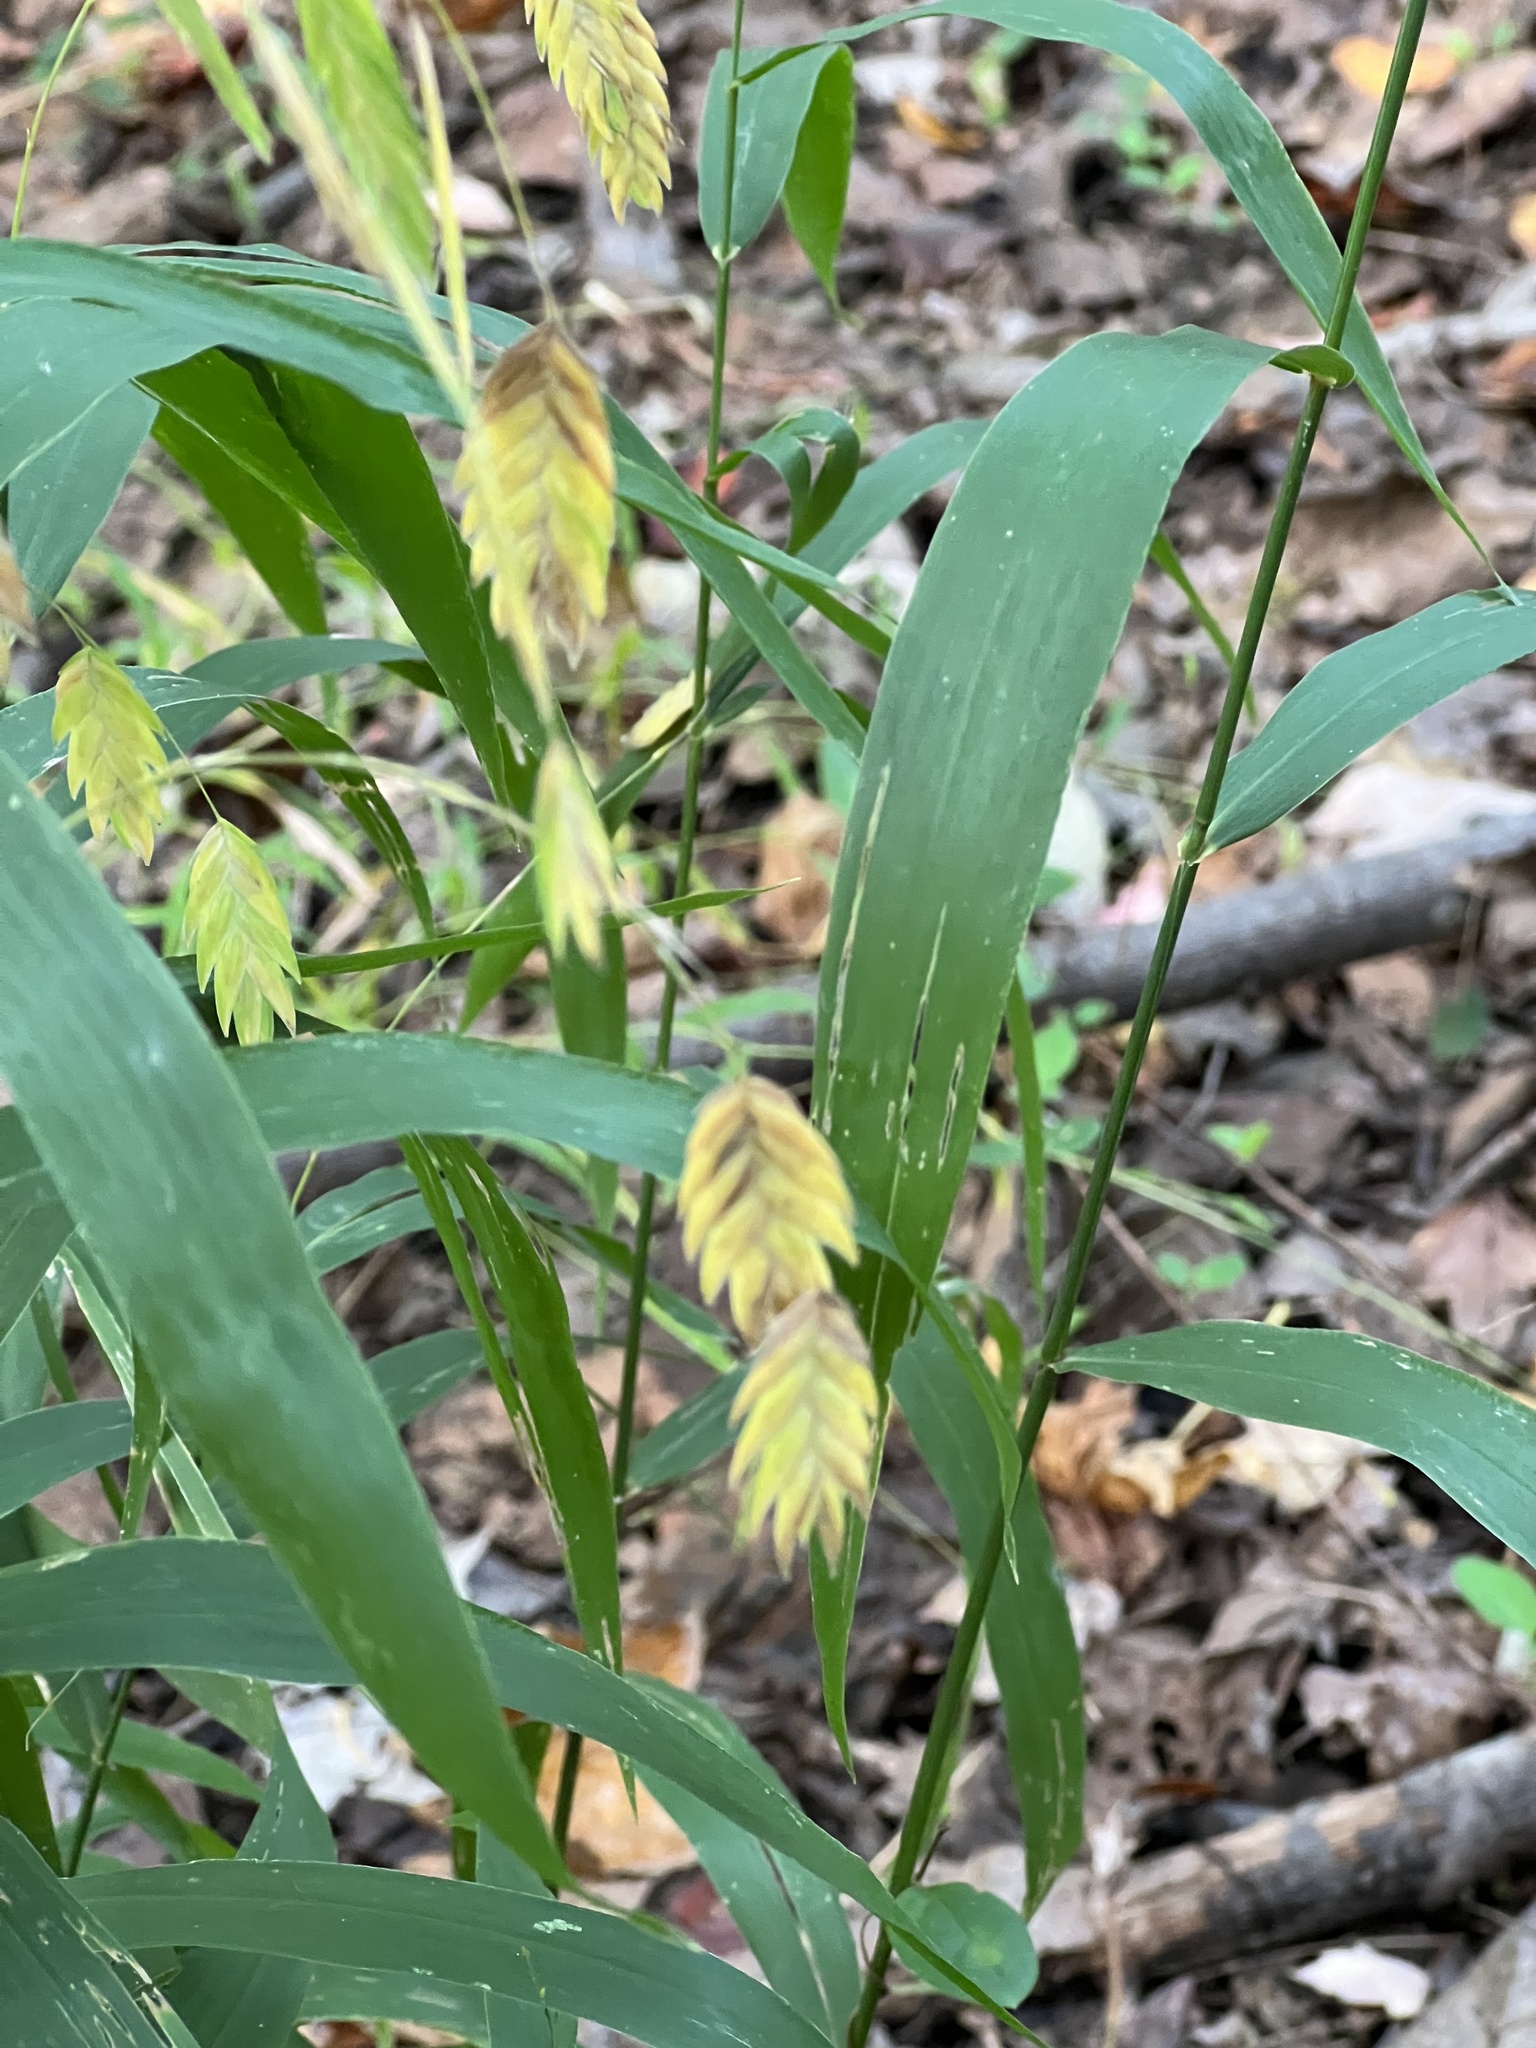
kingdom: Plantae
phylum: Tracheophyta
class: Liliopsida
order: Poales
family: Poaceae
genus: Chasmanthium
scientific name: Chasmanthium latifolium
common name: Broad-leaved chasmanthium
